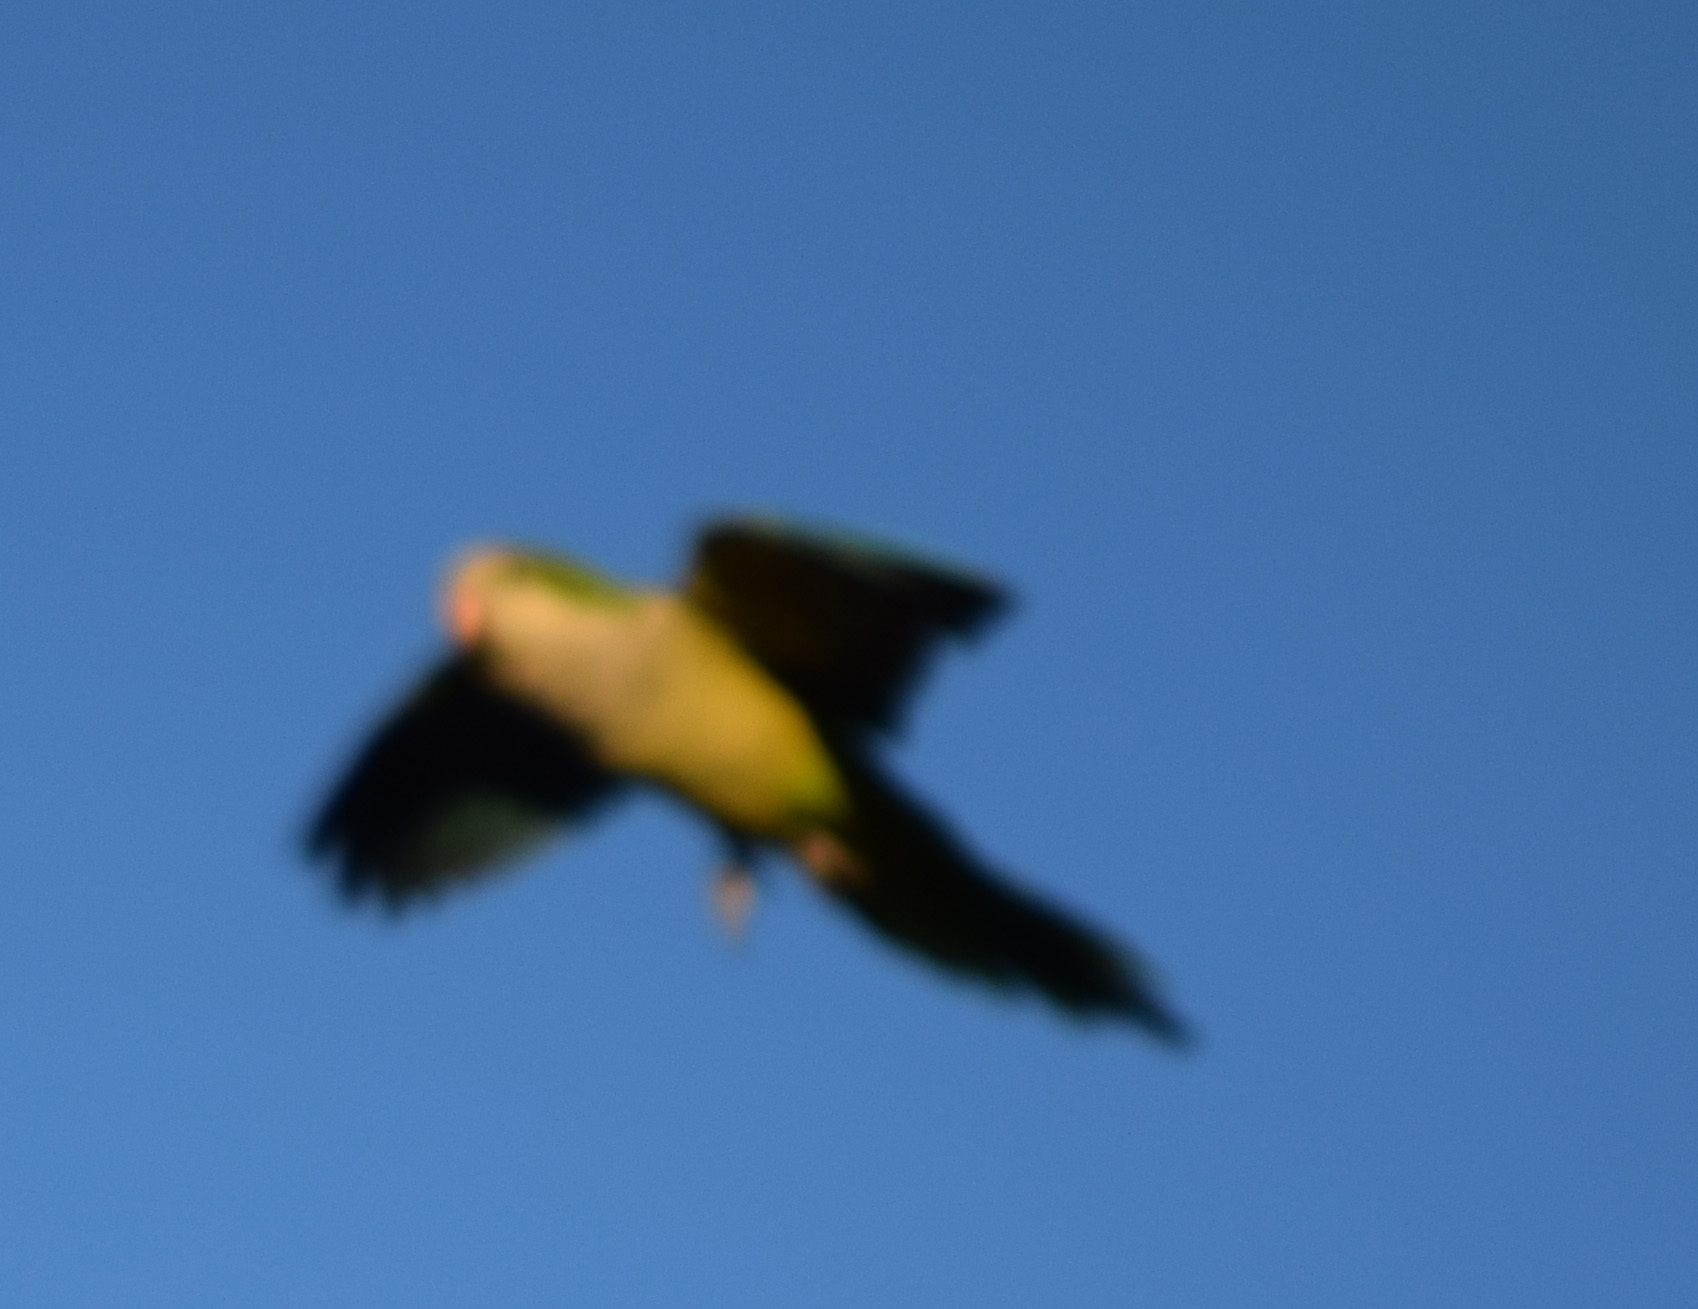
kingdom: Animalia
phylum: Chordata
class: Aves
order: Psittaciformes
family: Psittacidae
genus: Myiopsitta
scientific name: Myiopsitta monachus
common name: Monk parakeet
